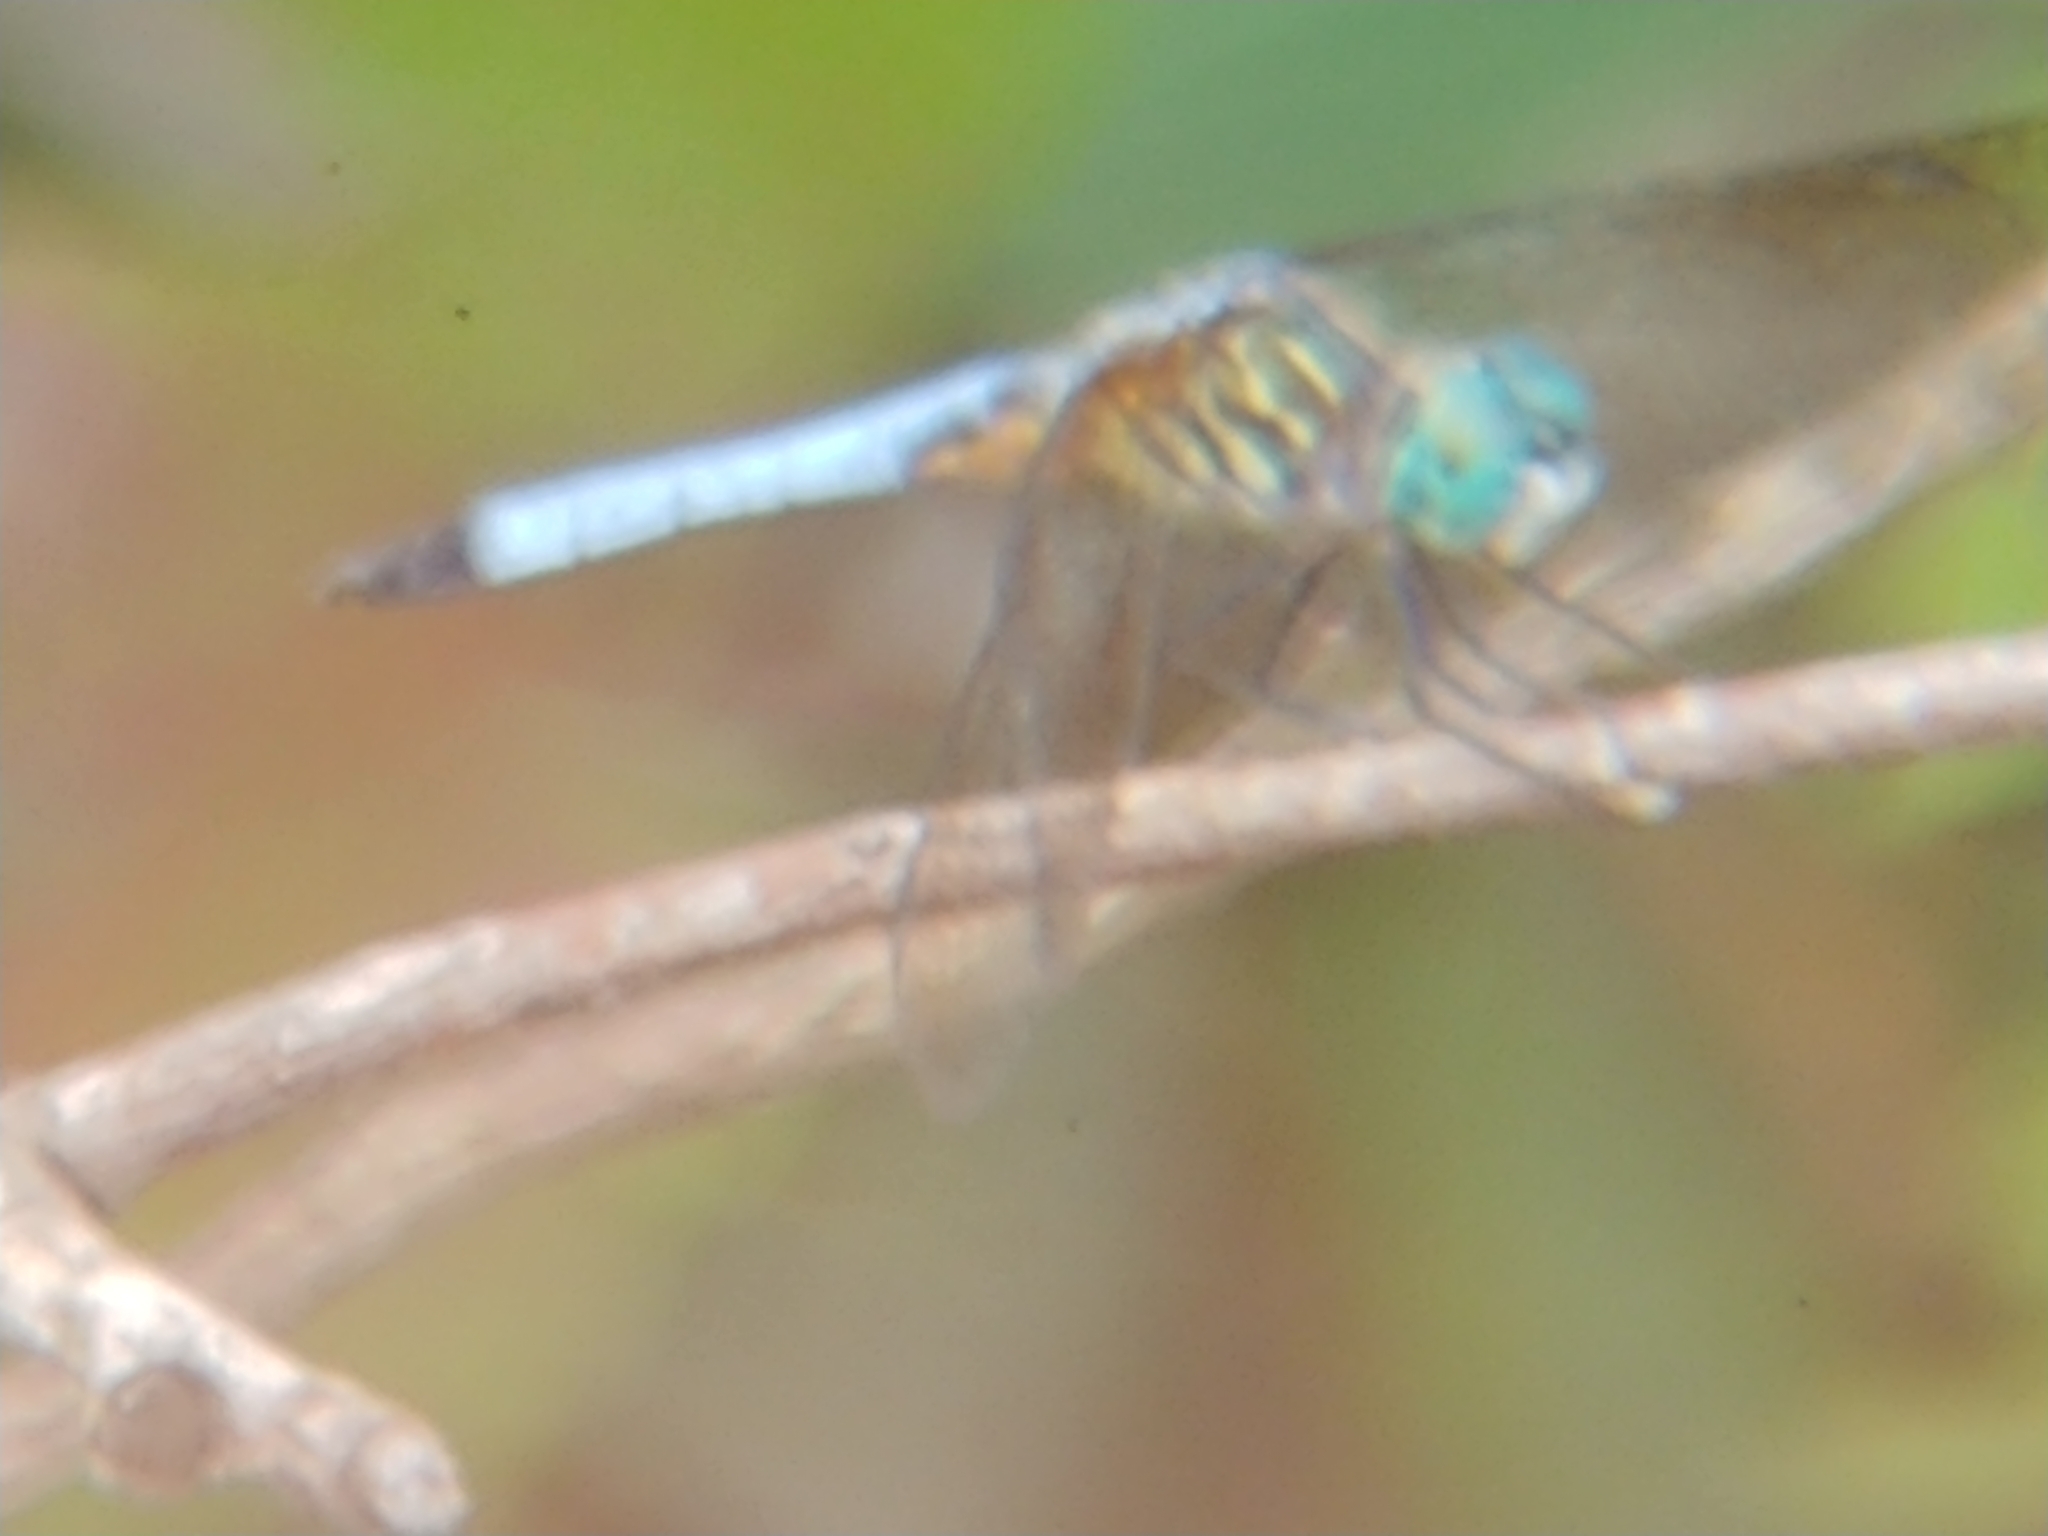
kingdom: Animalia
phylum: Arthropoda
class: Insecta
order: Odonata
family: Libellulidae
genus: Pachydiplax
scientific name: Pachydiplax longipennis
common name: Blue dasher
